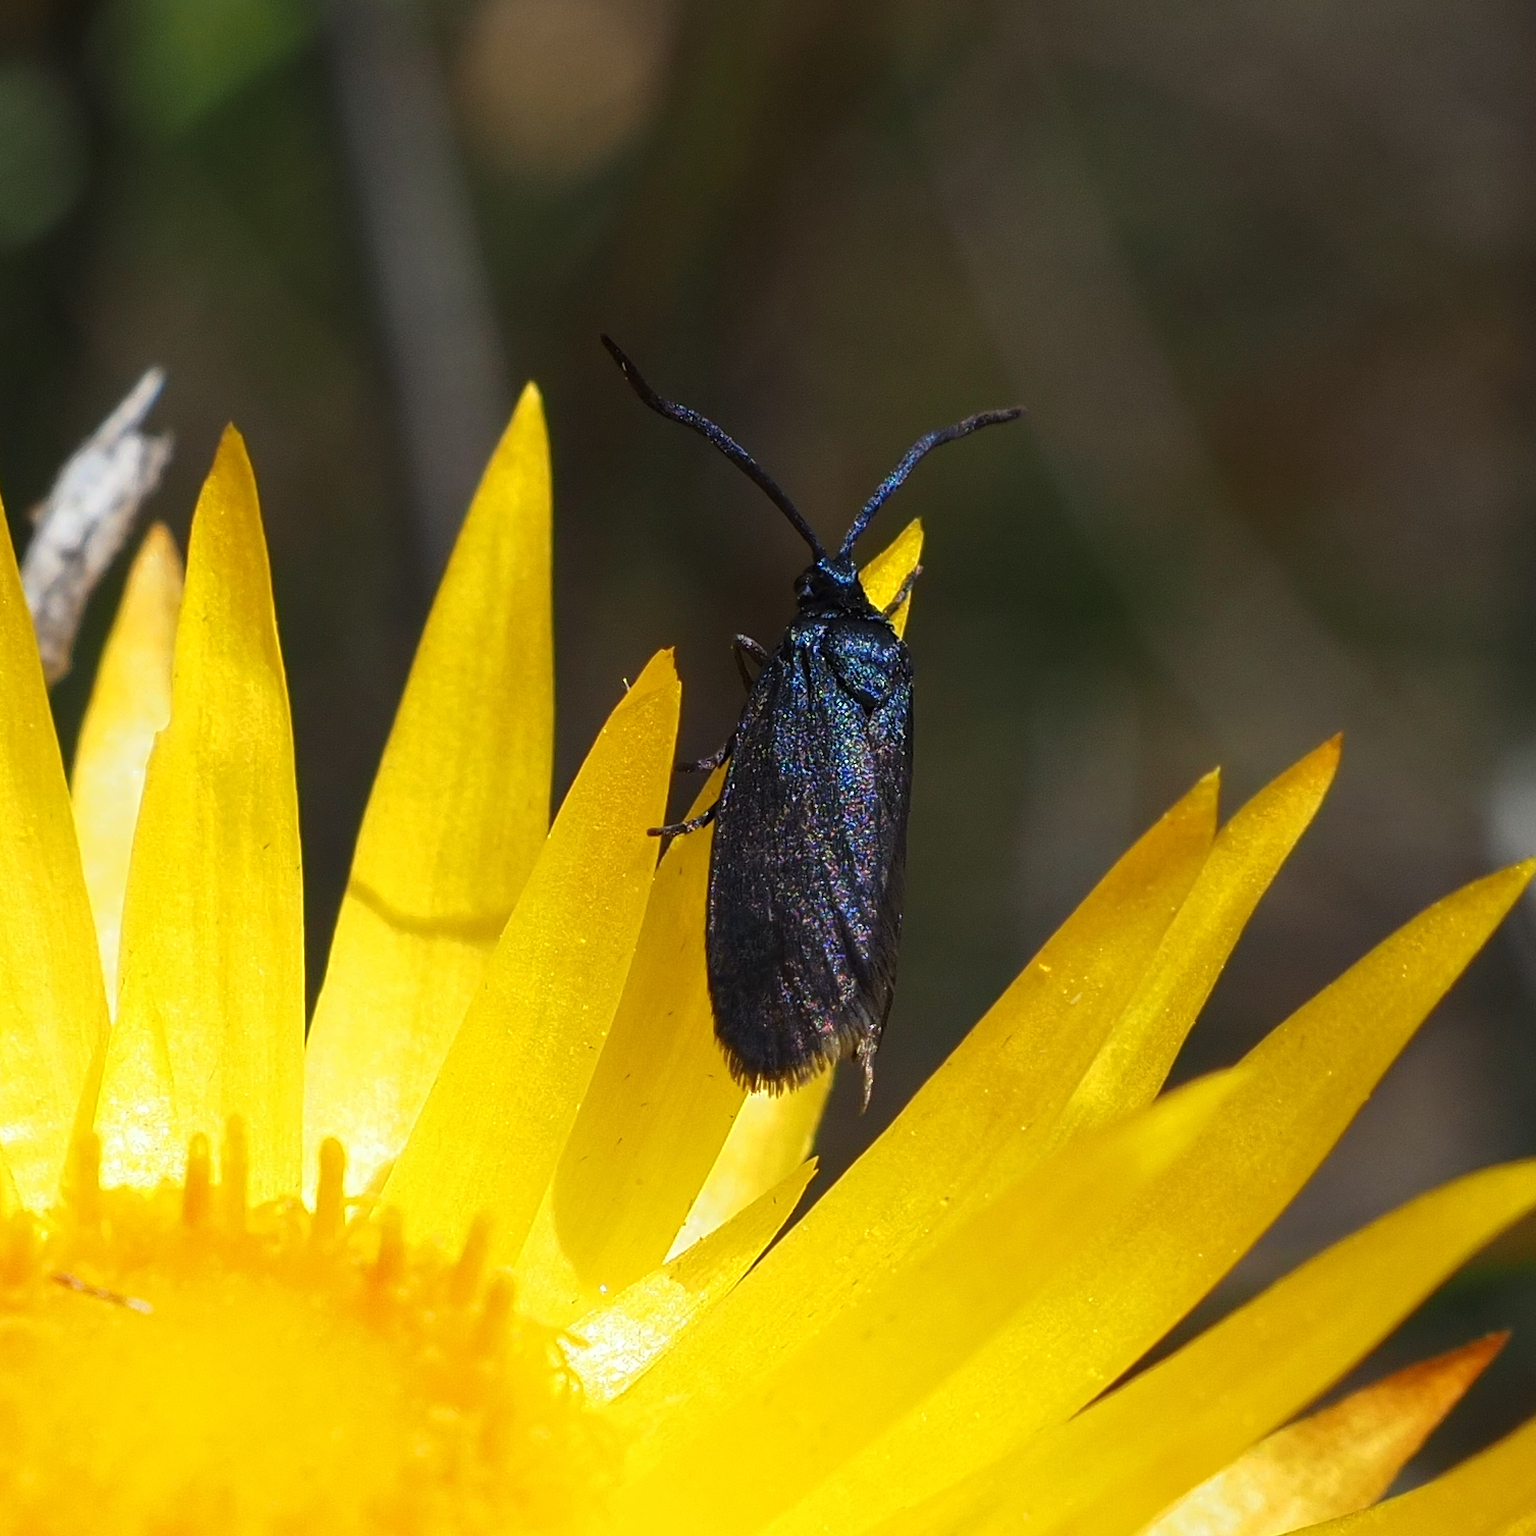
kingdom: Animalia
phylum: Arthropoda
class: Insecta
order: Lepidoptera
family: Zygaenidae
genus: Turneriprocris
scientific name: Turneriprocris dolens
